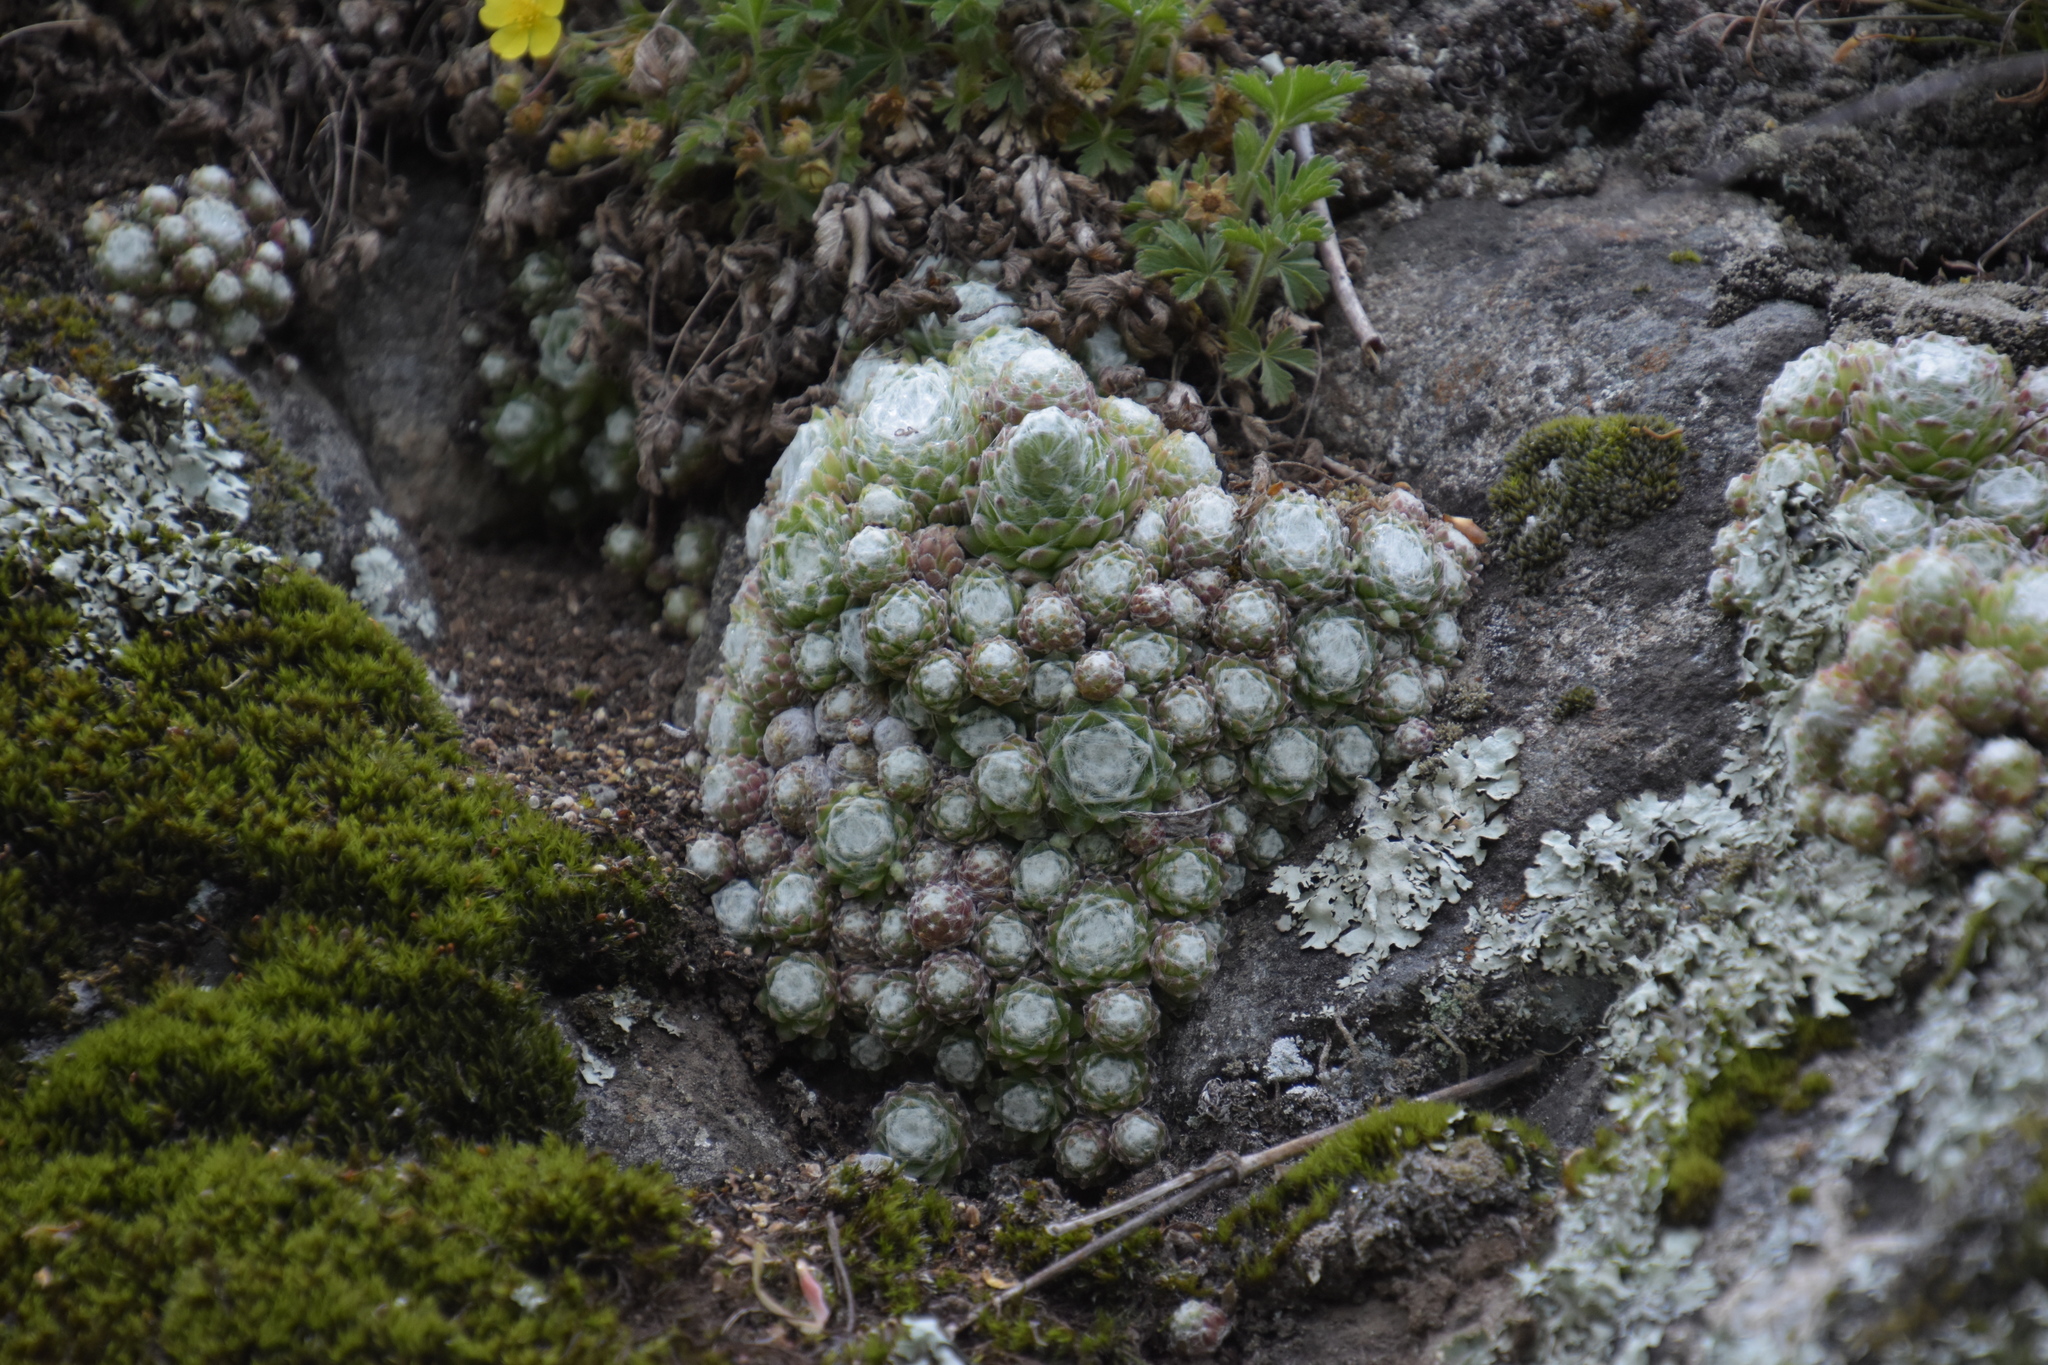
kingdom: Plantae
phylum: Tracheophyta
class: Magnoliopsida
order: Saxifragales
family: Crassulaceae
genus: Sempervivum
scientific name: Sempervivum arachnoideum
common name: Cobweb house-leek
